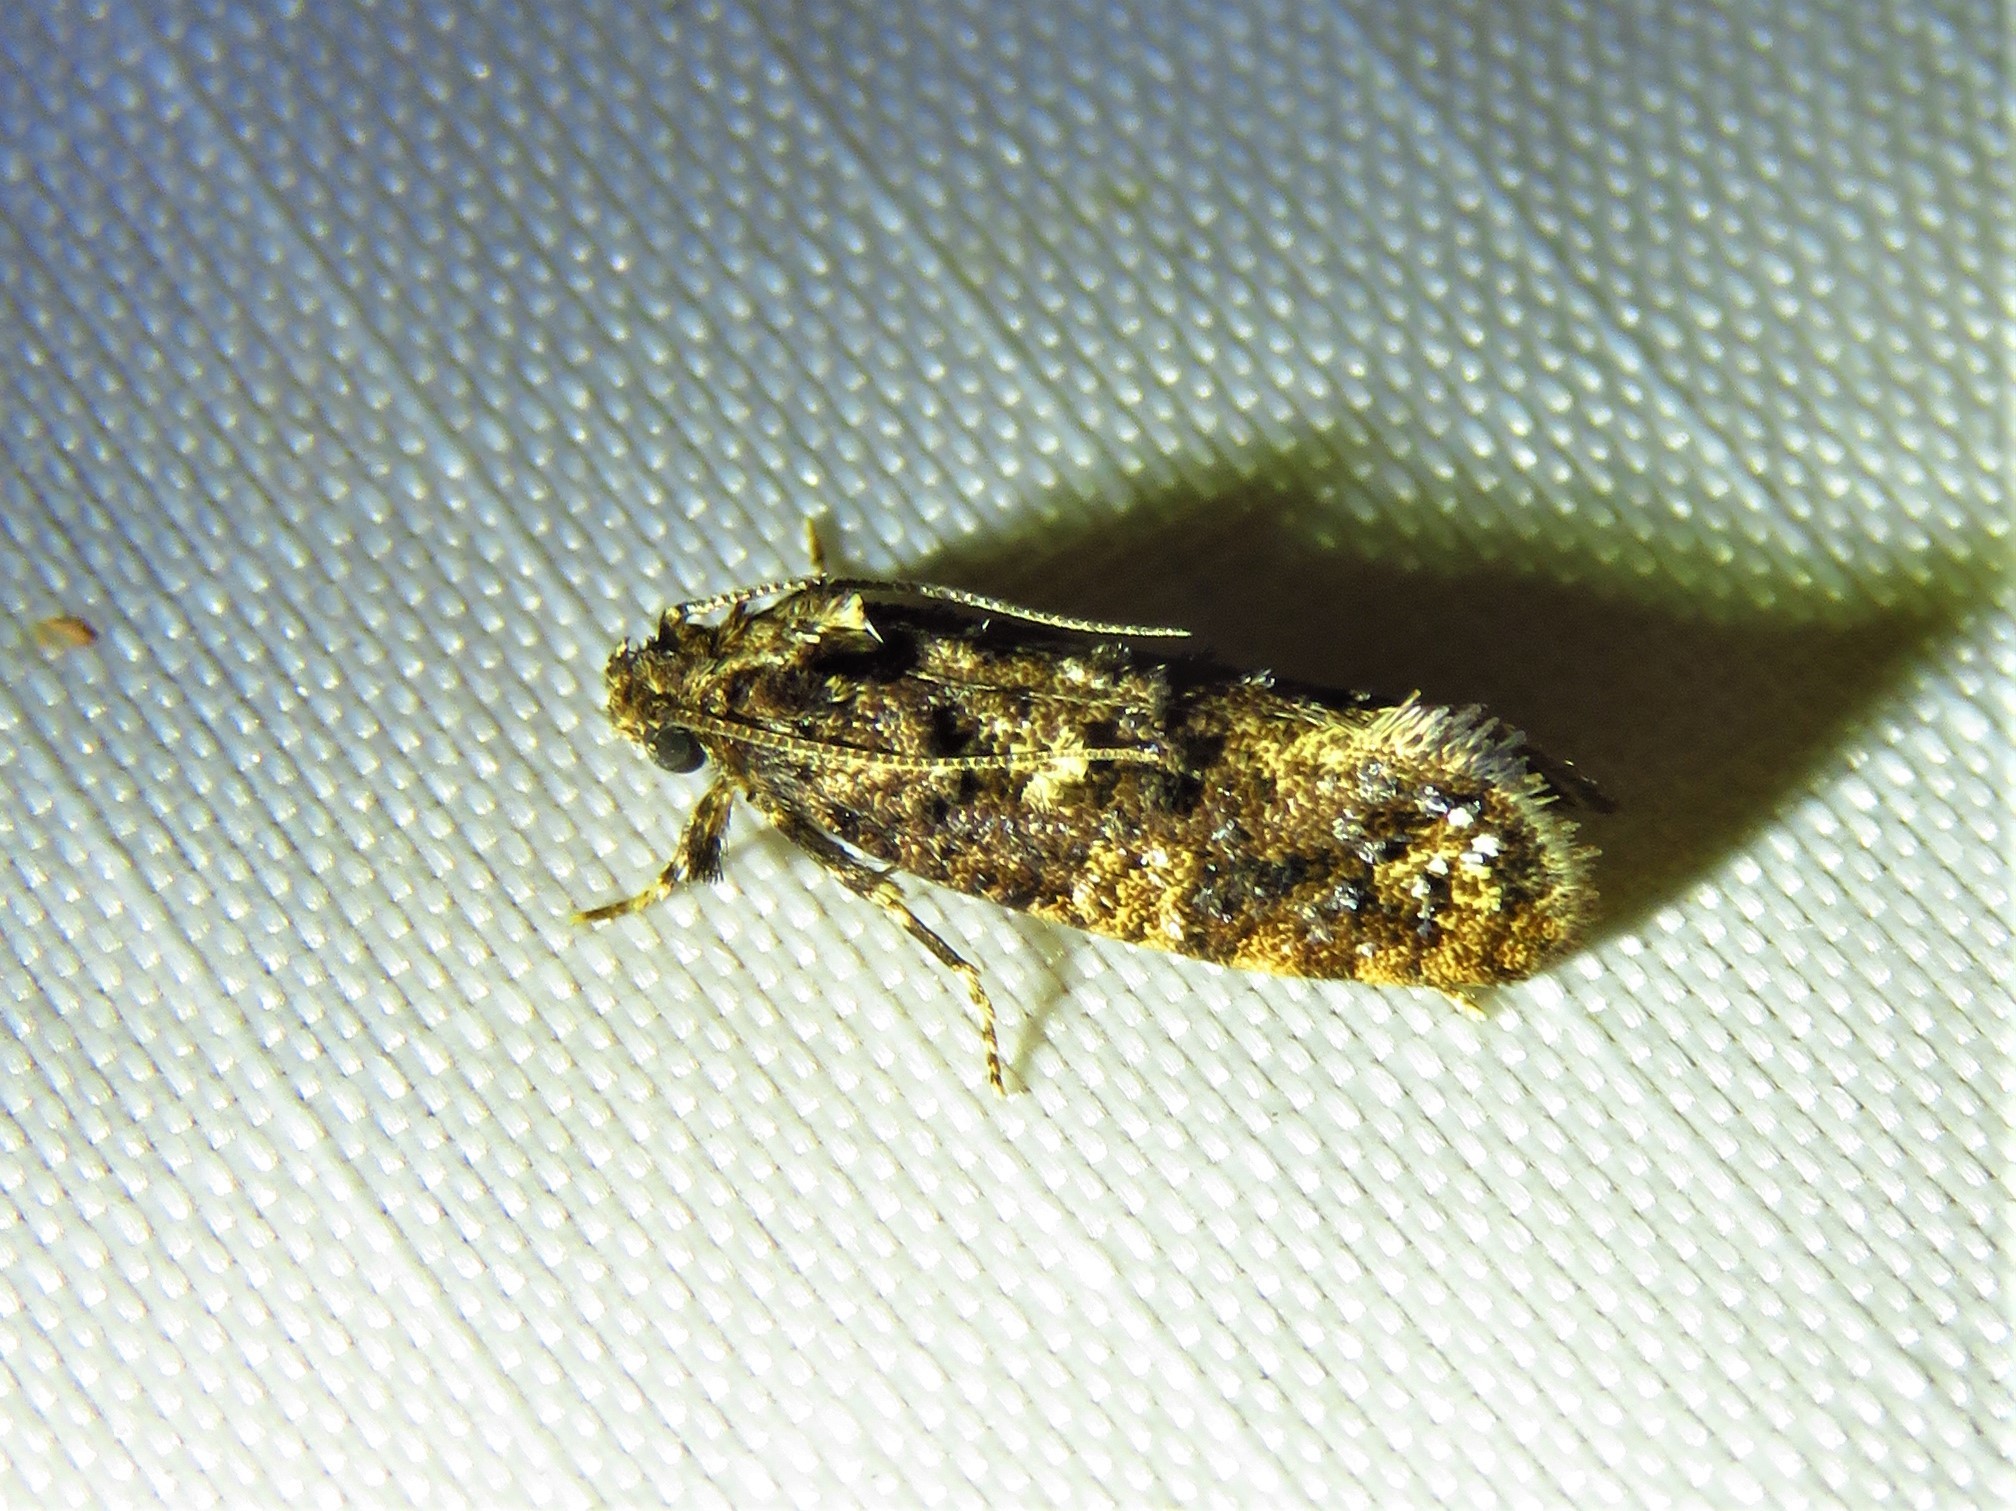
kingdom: Animalia
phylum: Arthropoda
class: Insecta
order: Lepidoptera
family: Tineidae
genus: Acrolophus
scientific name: Acrolophus cressoni
